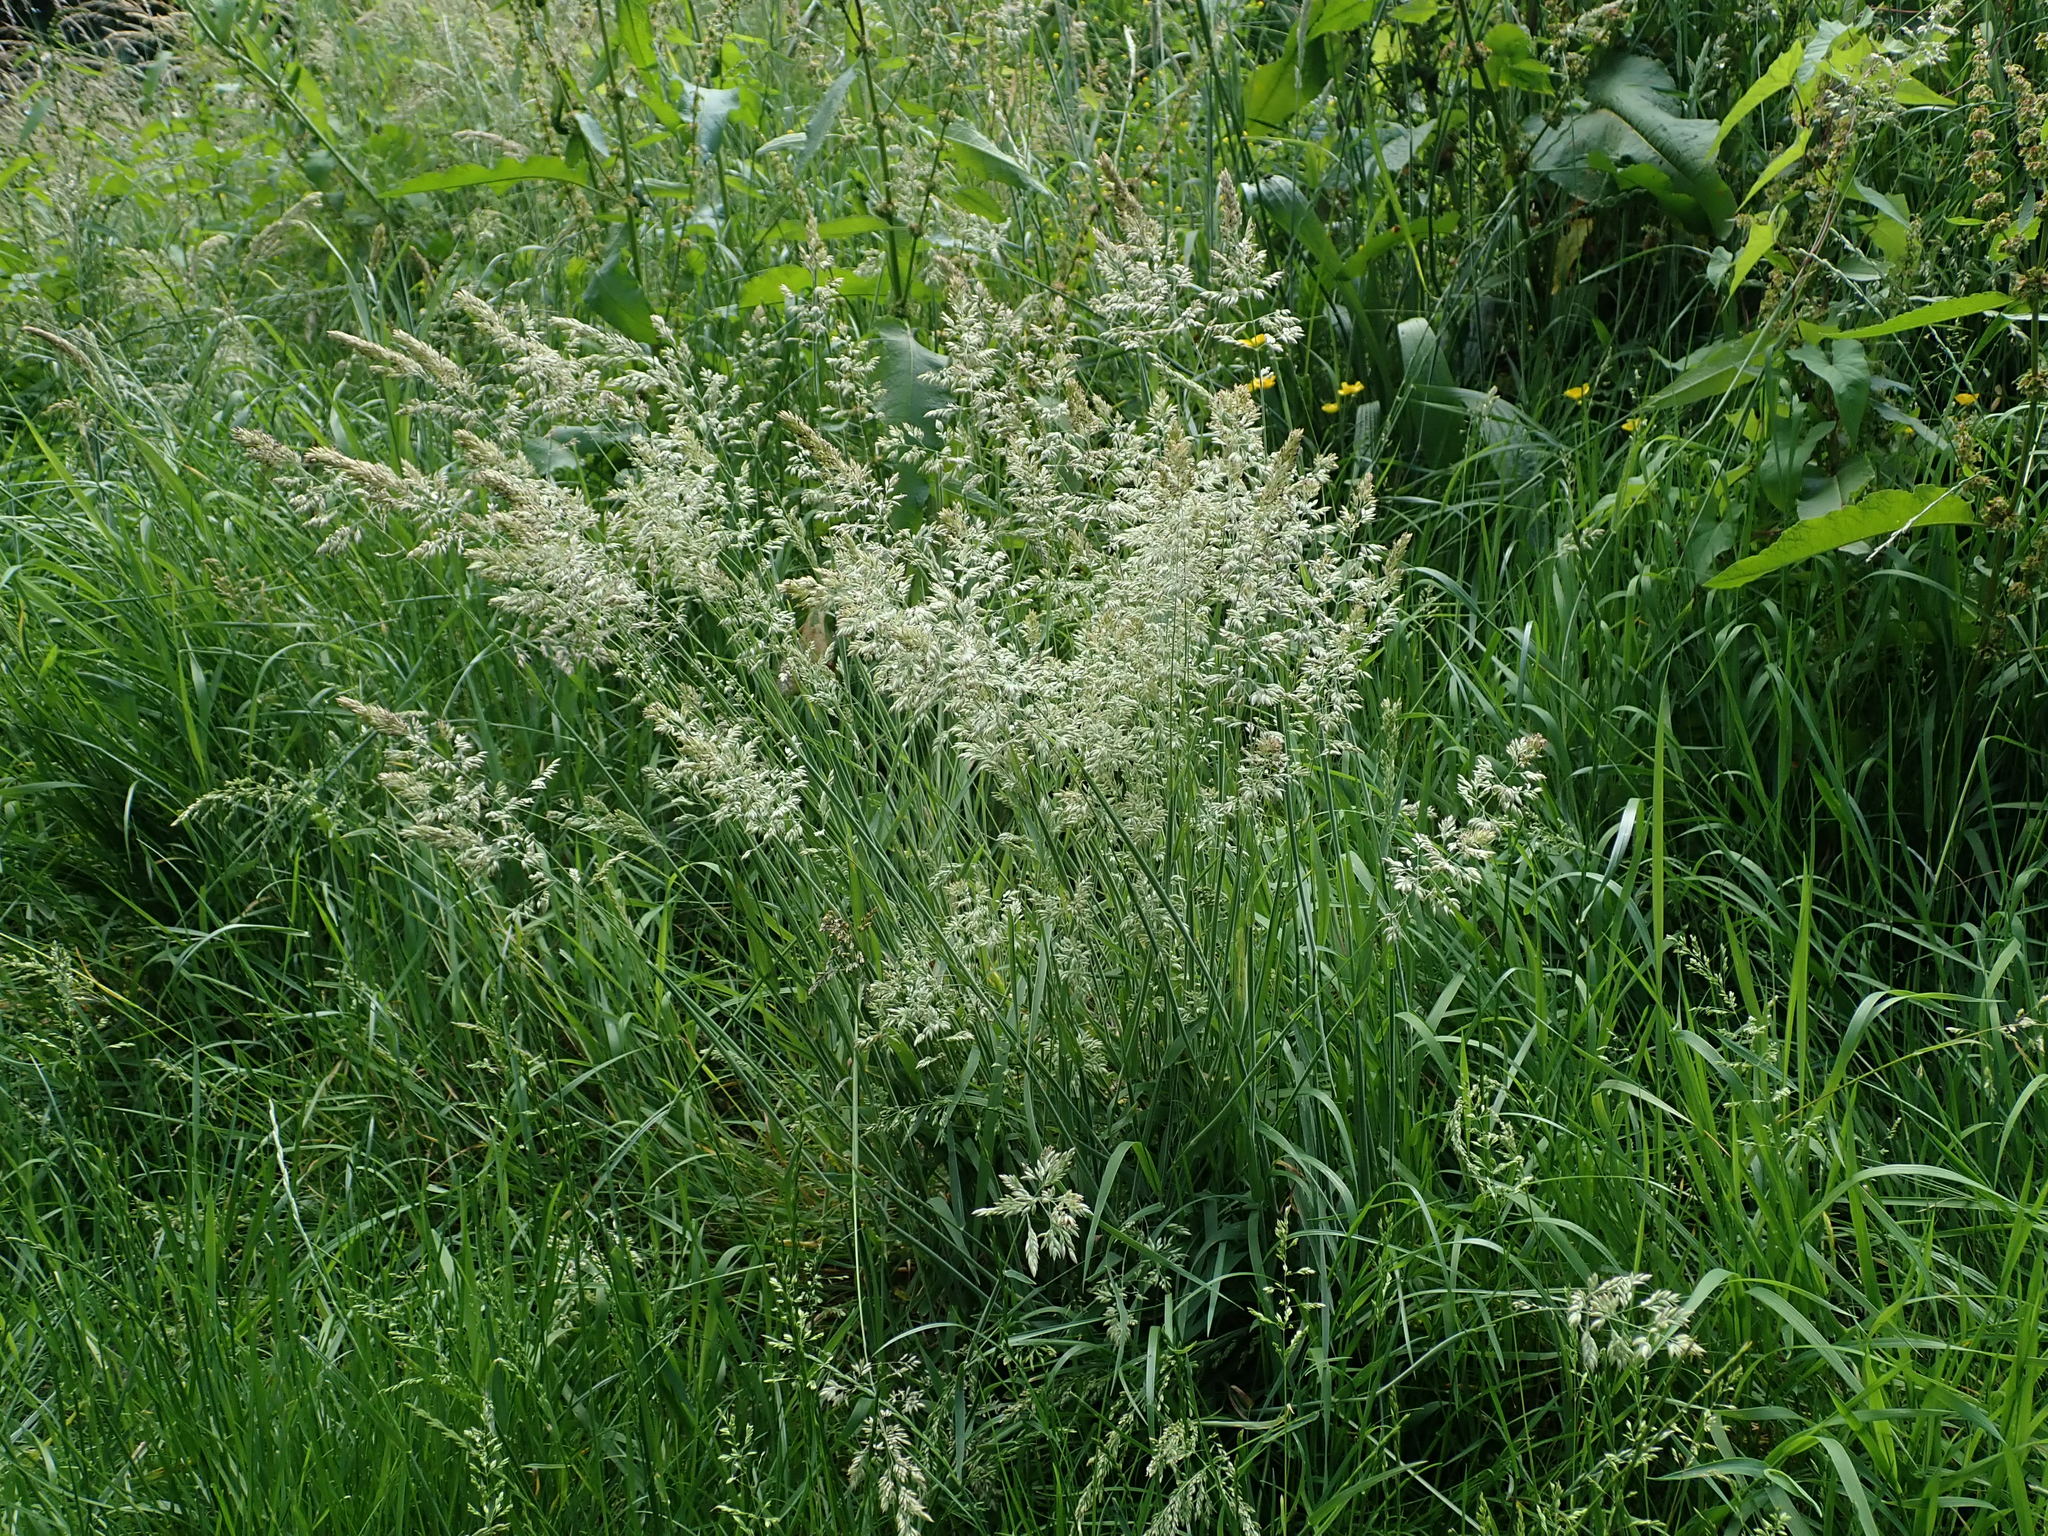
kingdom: Plantae
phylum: Tracheophyta
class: Liliopsida
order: Poales
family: Poaceae
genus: Holcus
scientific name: Holcus lanatus
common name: Yorkshire-fog
